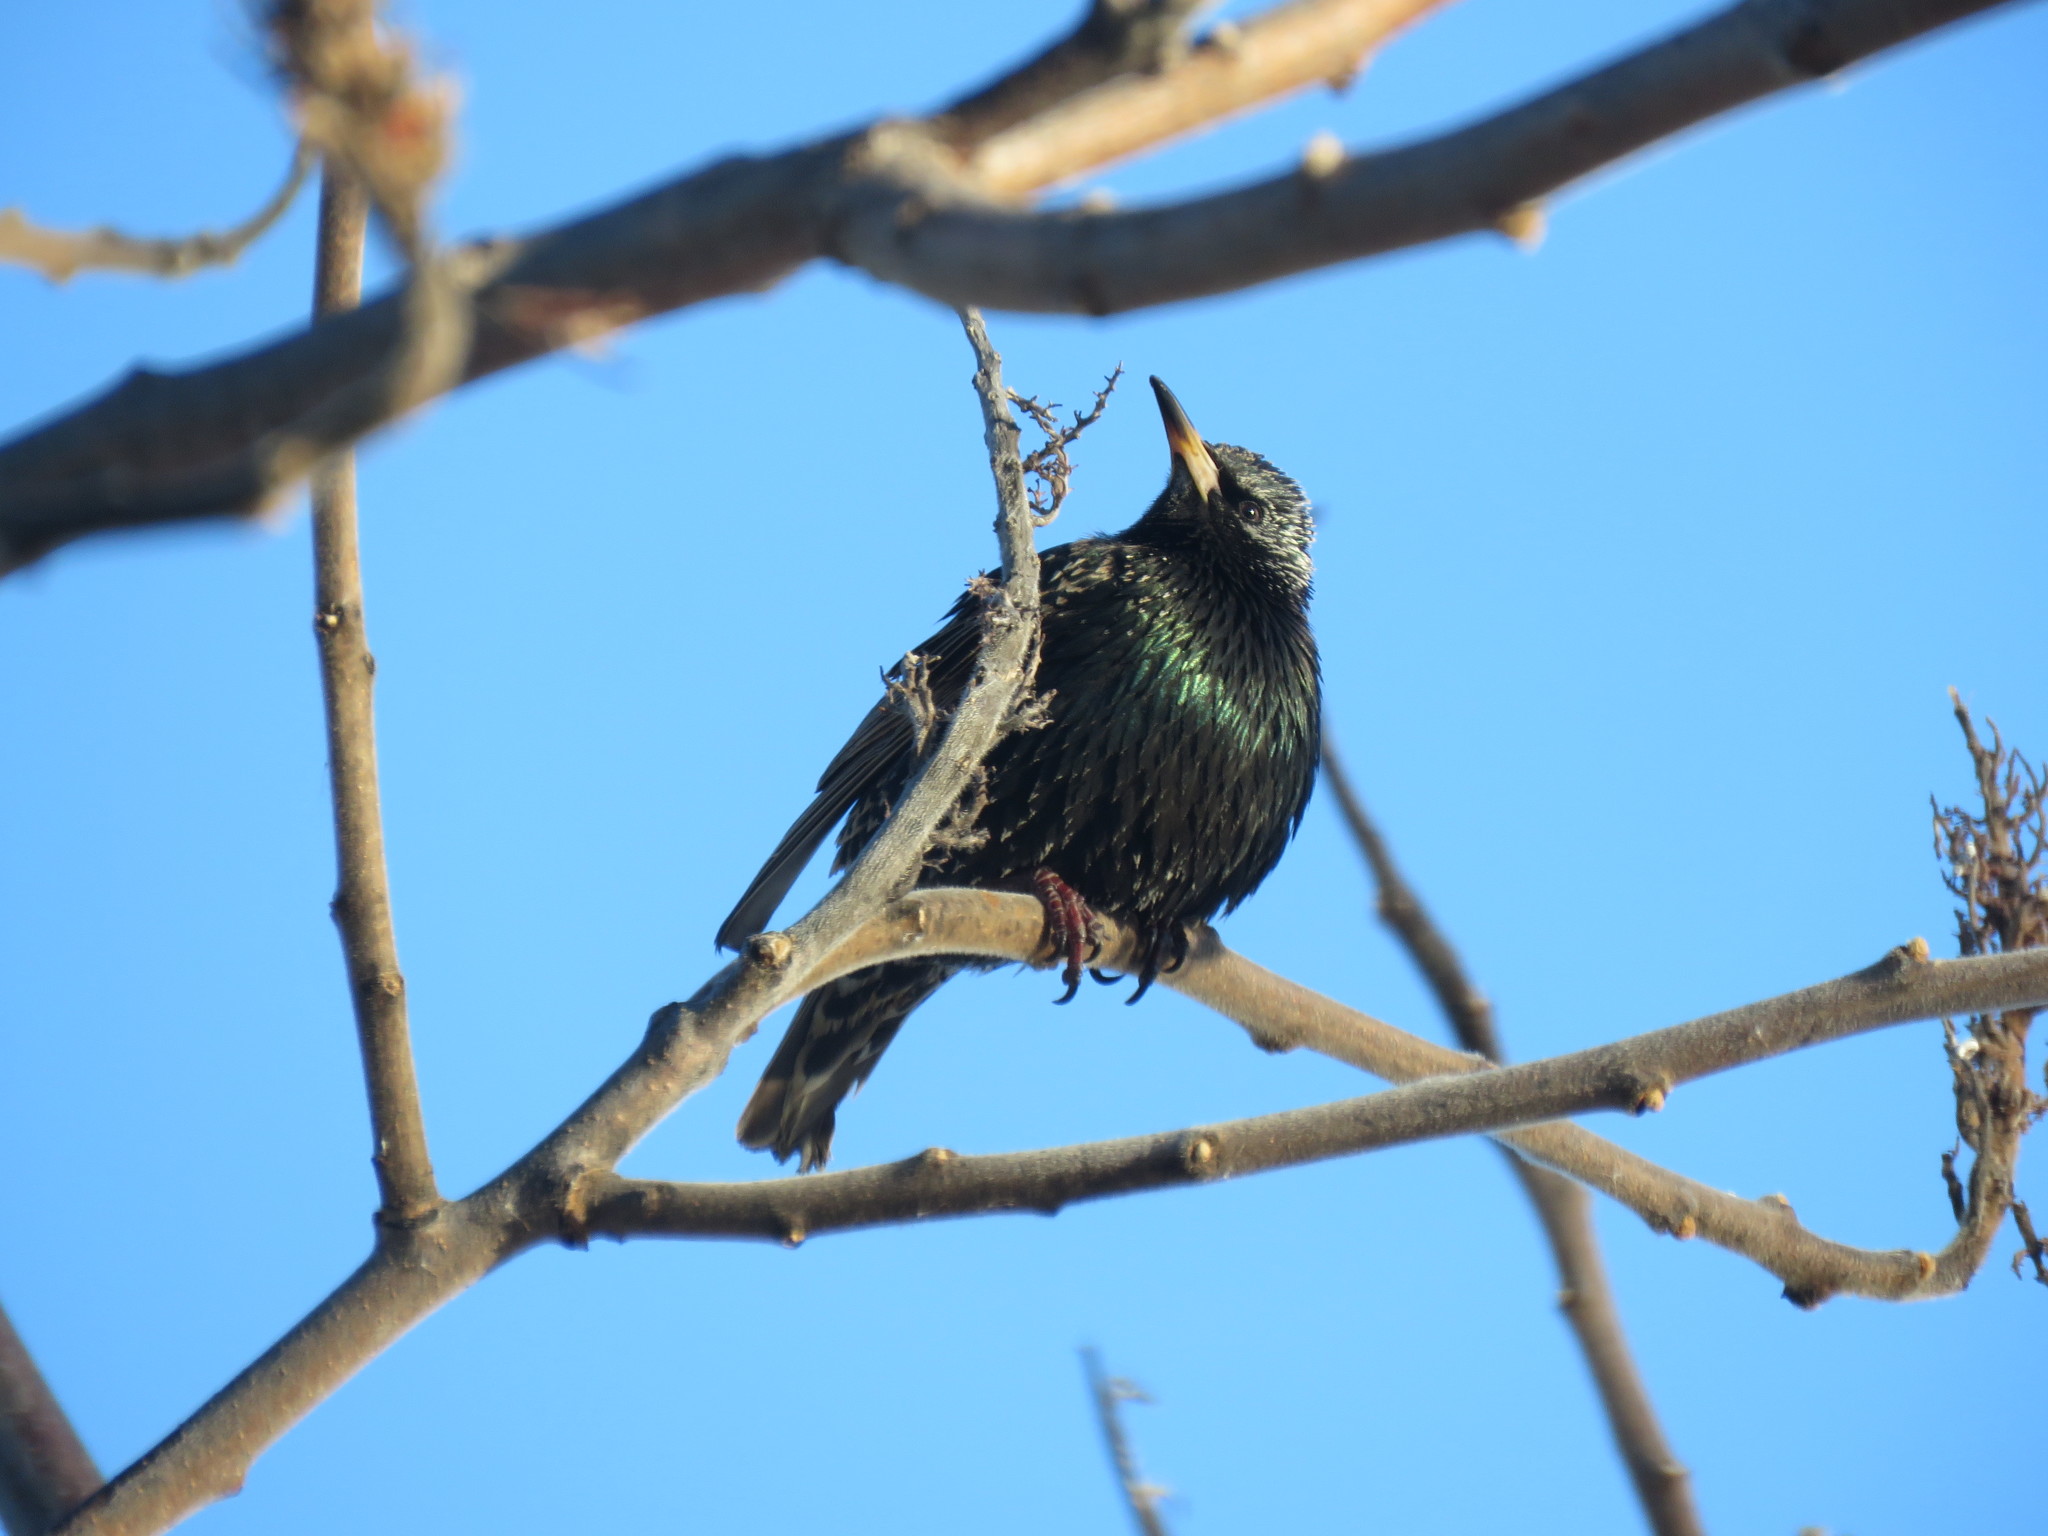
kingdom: Animalia
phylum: Chordata
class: Aves
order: Passeriformes
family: Sturnidae
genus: Sturnus
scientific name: Sturnus vulgaris
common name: Common starling
